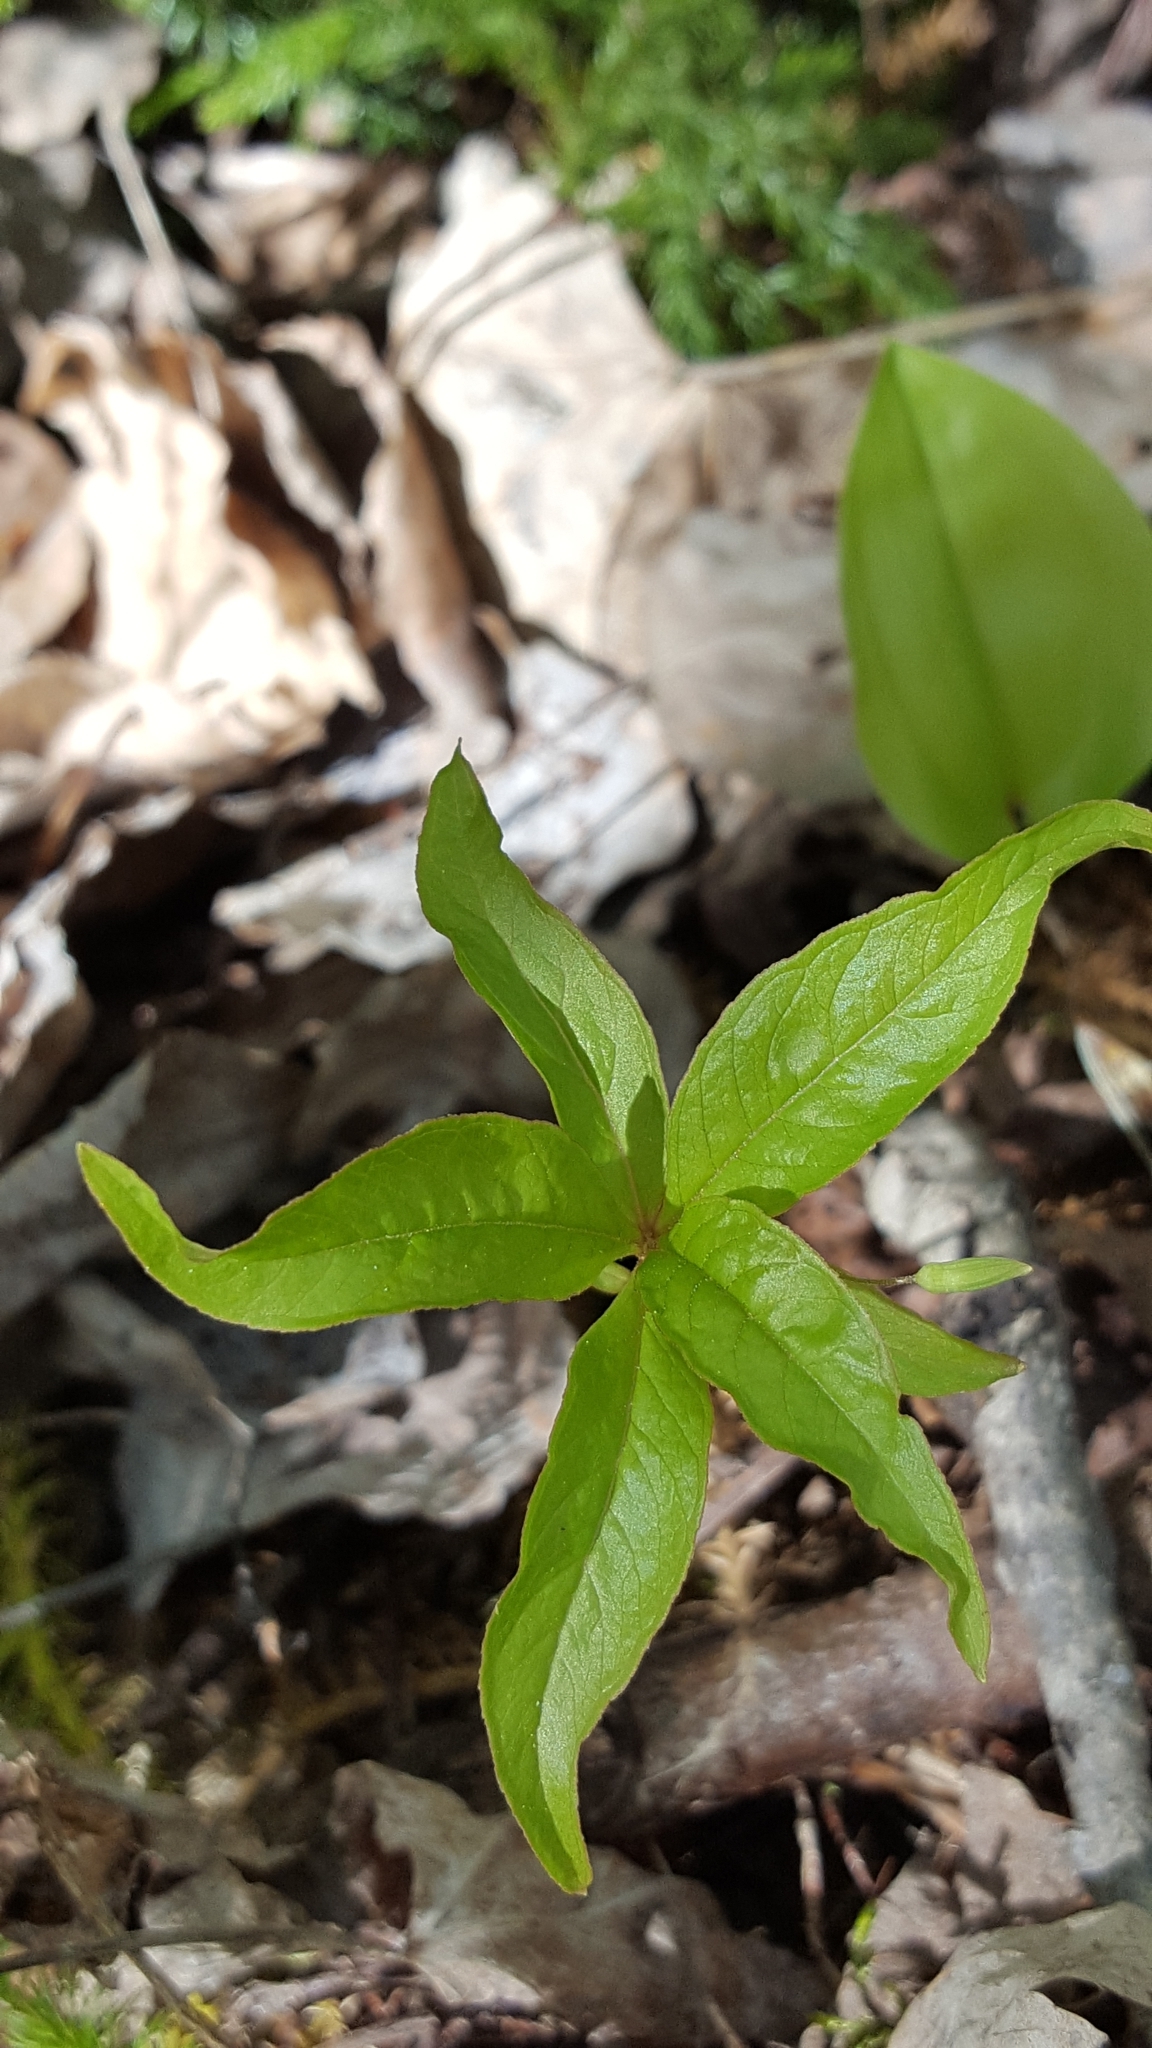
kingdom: Plantae
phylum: Tracheophyta
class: Magnoliopsida
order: Ericales
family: Primulaceae
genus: Lysimachia
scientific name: Lysimachia borealis
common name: American starflower
